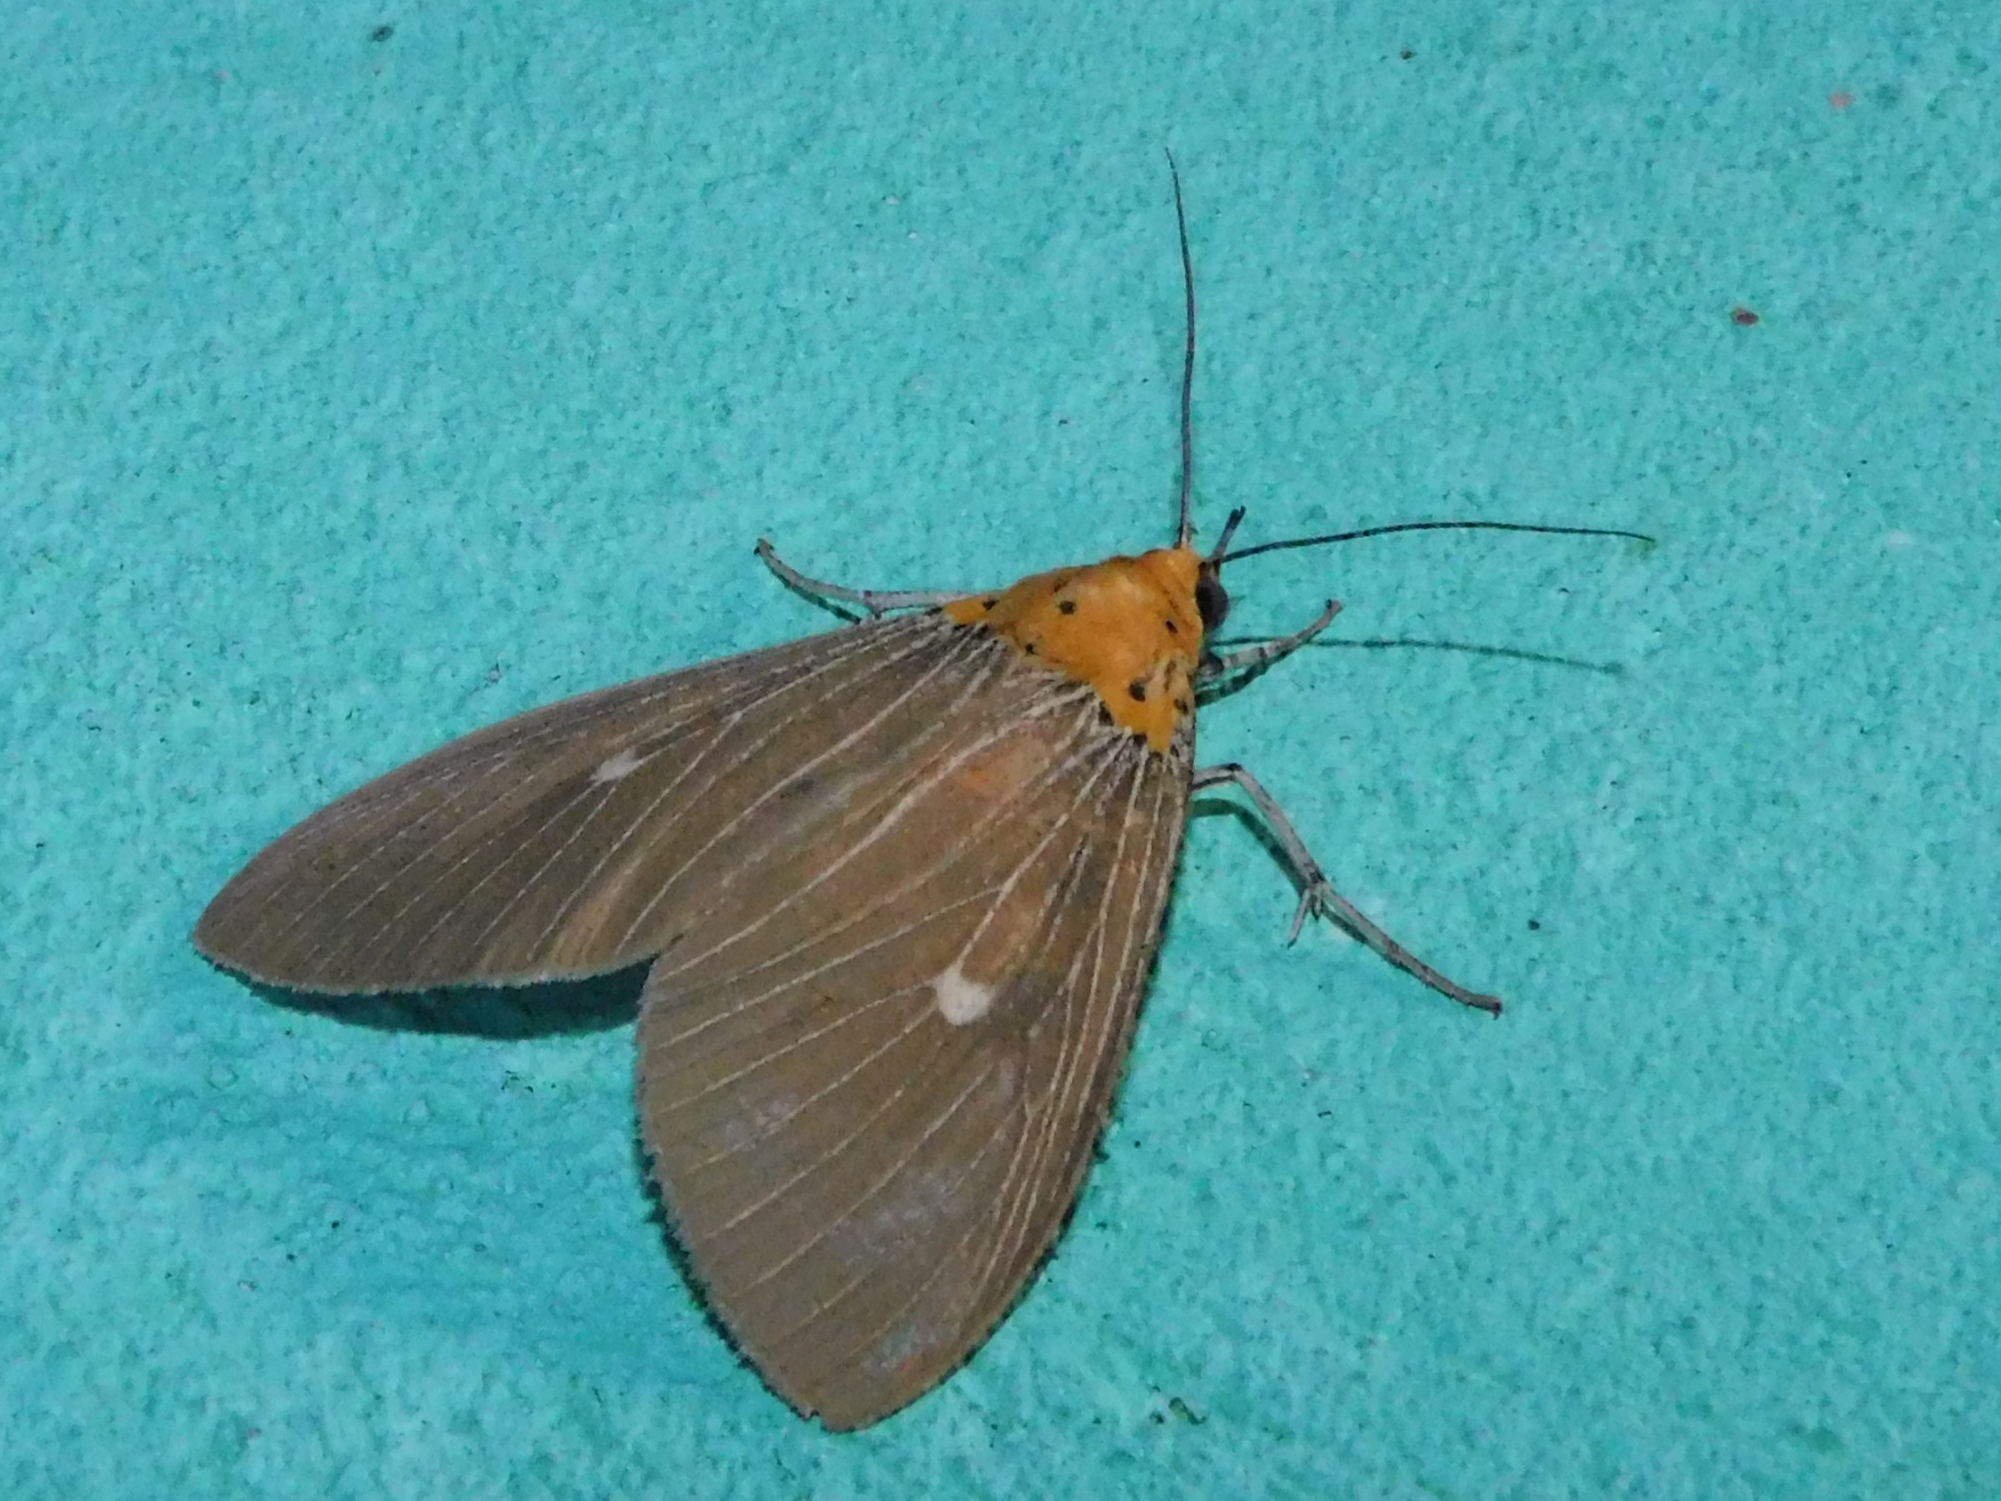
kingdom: Animalia
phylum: Arthropoda
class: Insecta
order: Lepidoptera
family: Erebidae
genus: Asota
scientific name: Asota caricae
